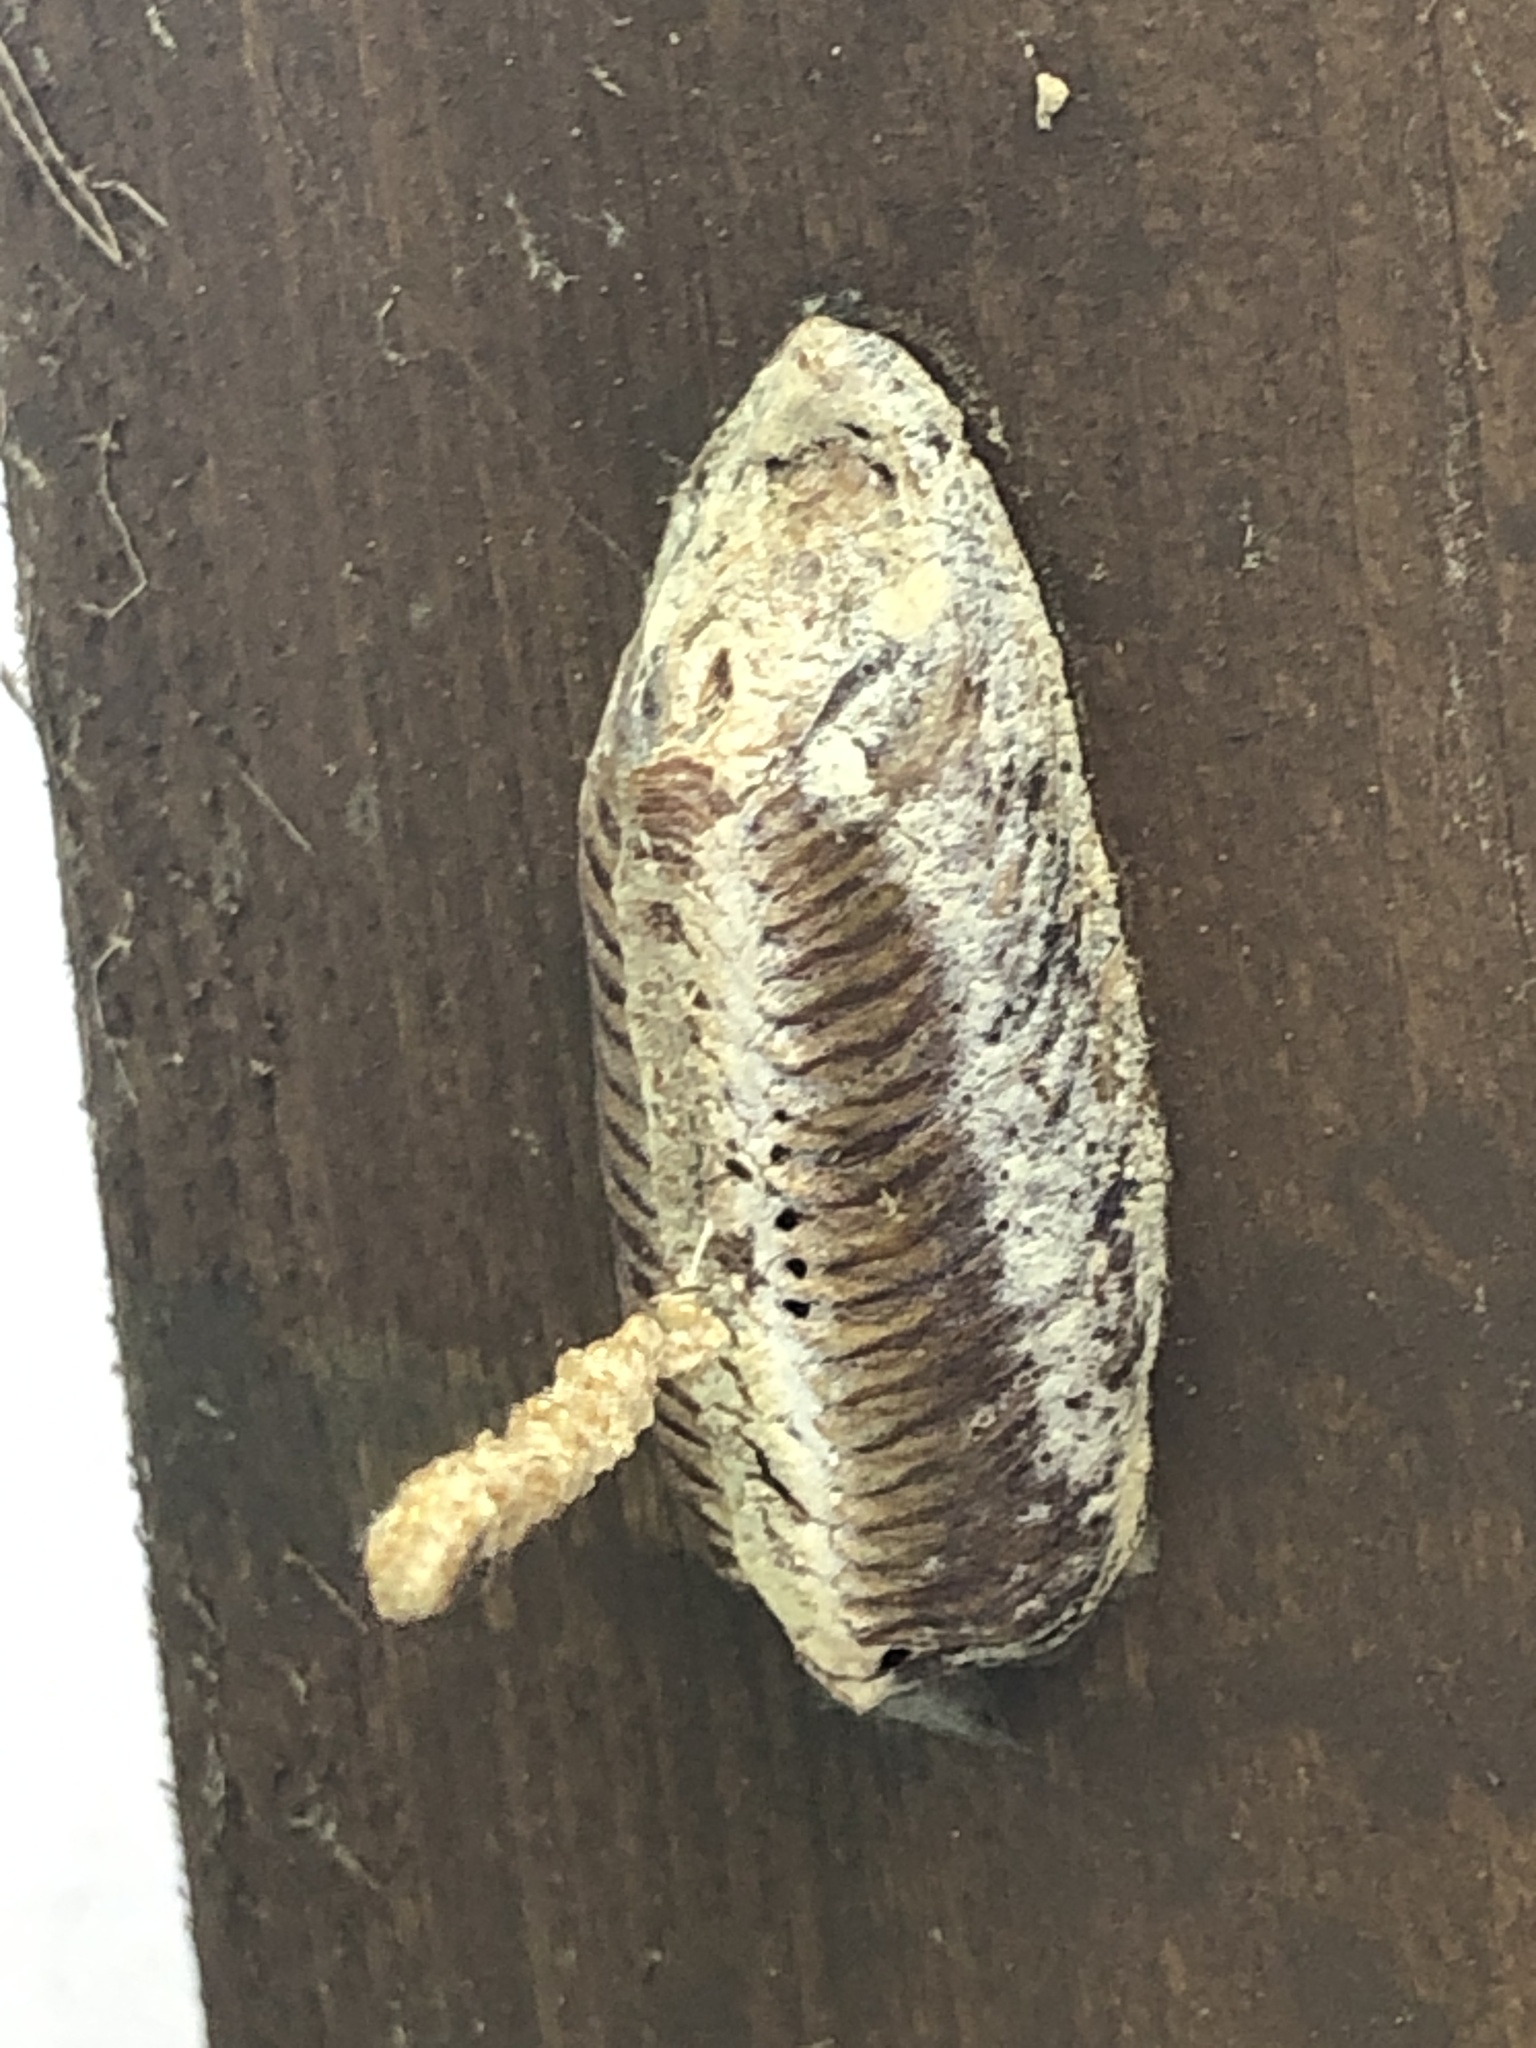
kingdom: Animalia
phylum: Arthropoda
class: Insecta
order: Mantodea
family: Mantidae
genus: Hierodula
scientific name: Hierodula patellifera
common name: Asian mantis
